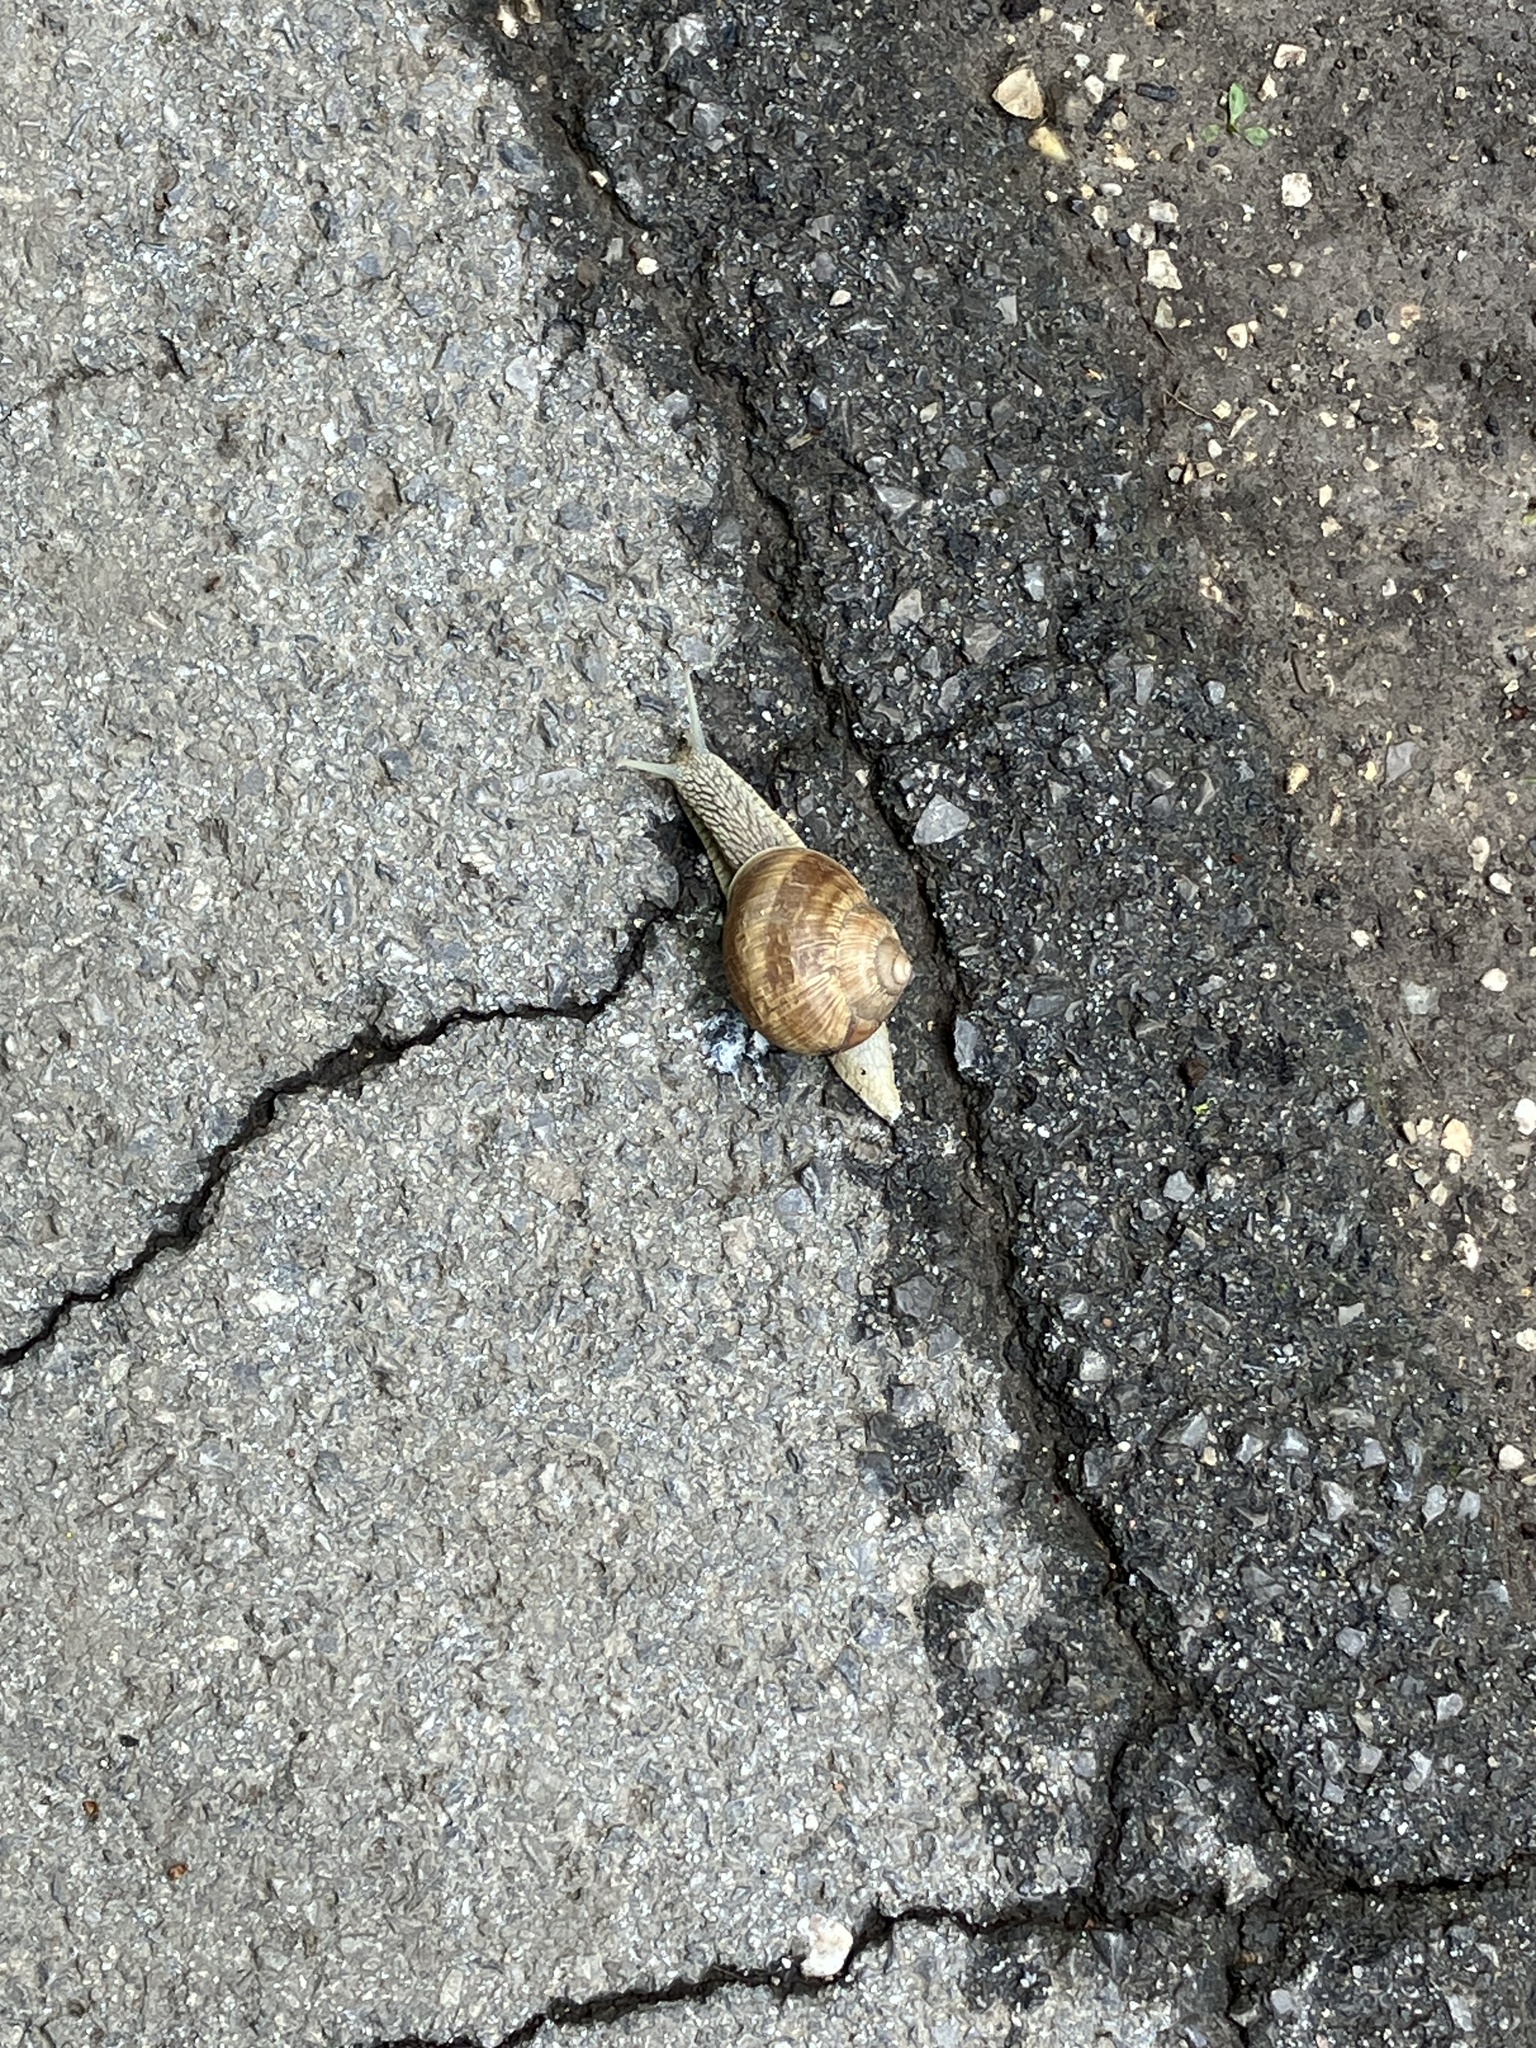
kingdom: Animalia
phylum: Mollusca
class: Gastropoda
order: Stylommatophora
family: Helicidae
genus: Helix
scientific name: Helix pomatia
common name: Roman snail
